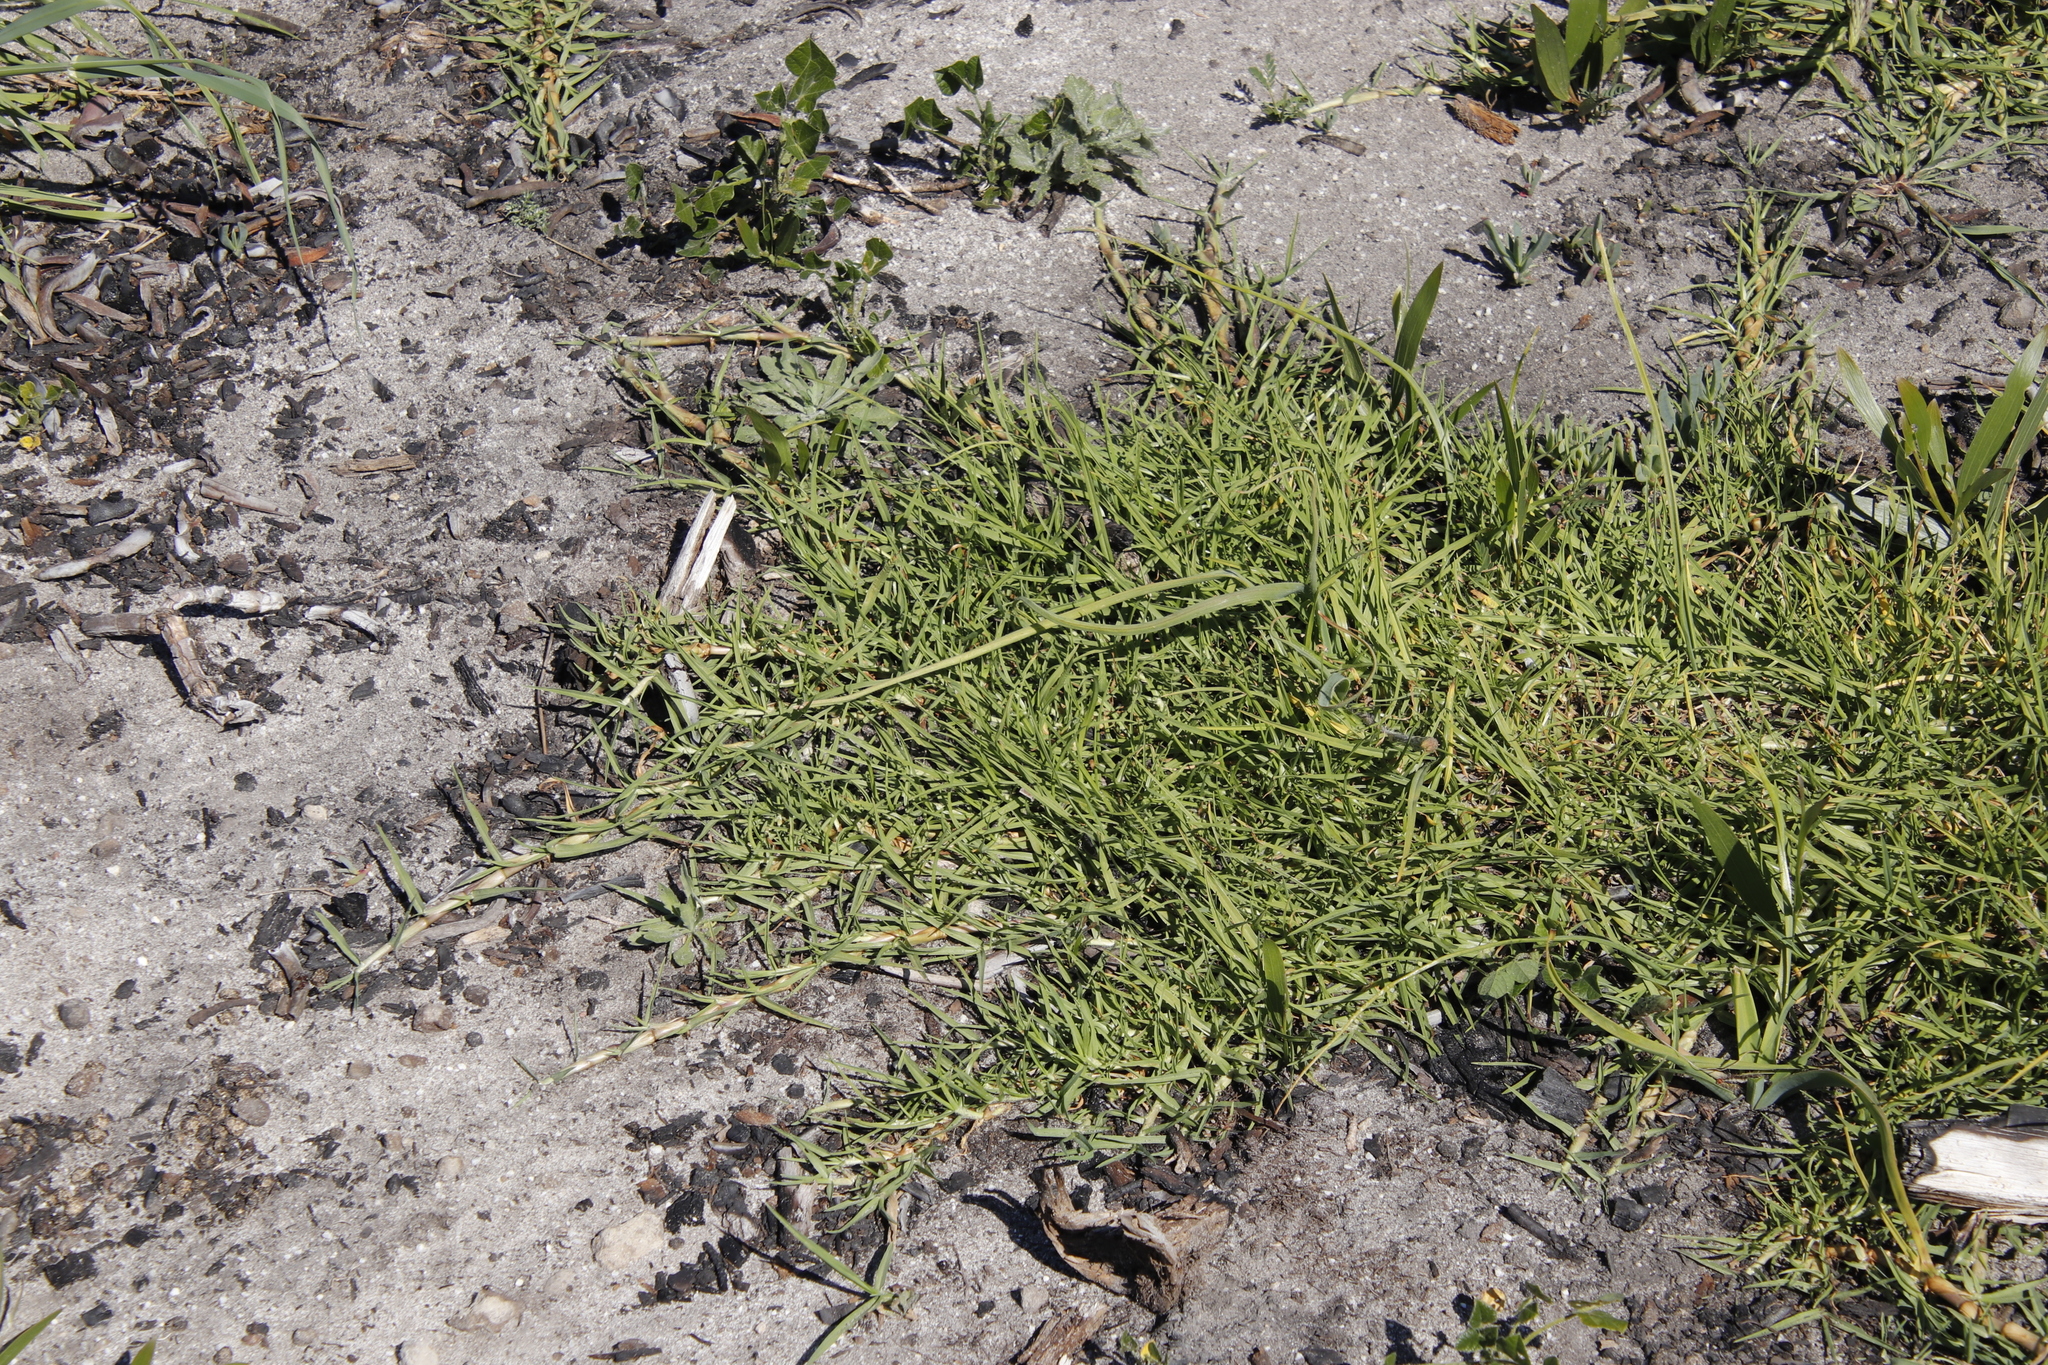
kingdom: Plantae
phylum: Tracheophyta
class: Liliopsida
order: Poales
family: Poaceae
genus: Cenchrus
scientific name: Cenchrus clandestinus
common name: Kikuyugrass
